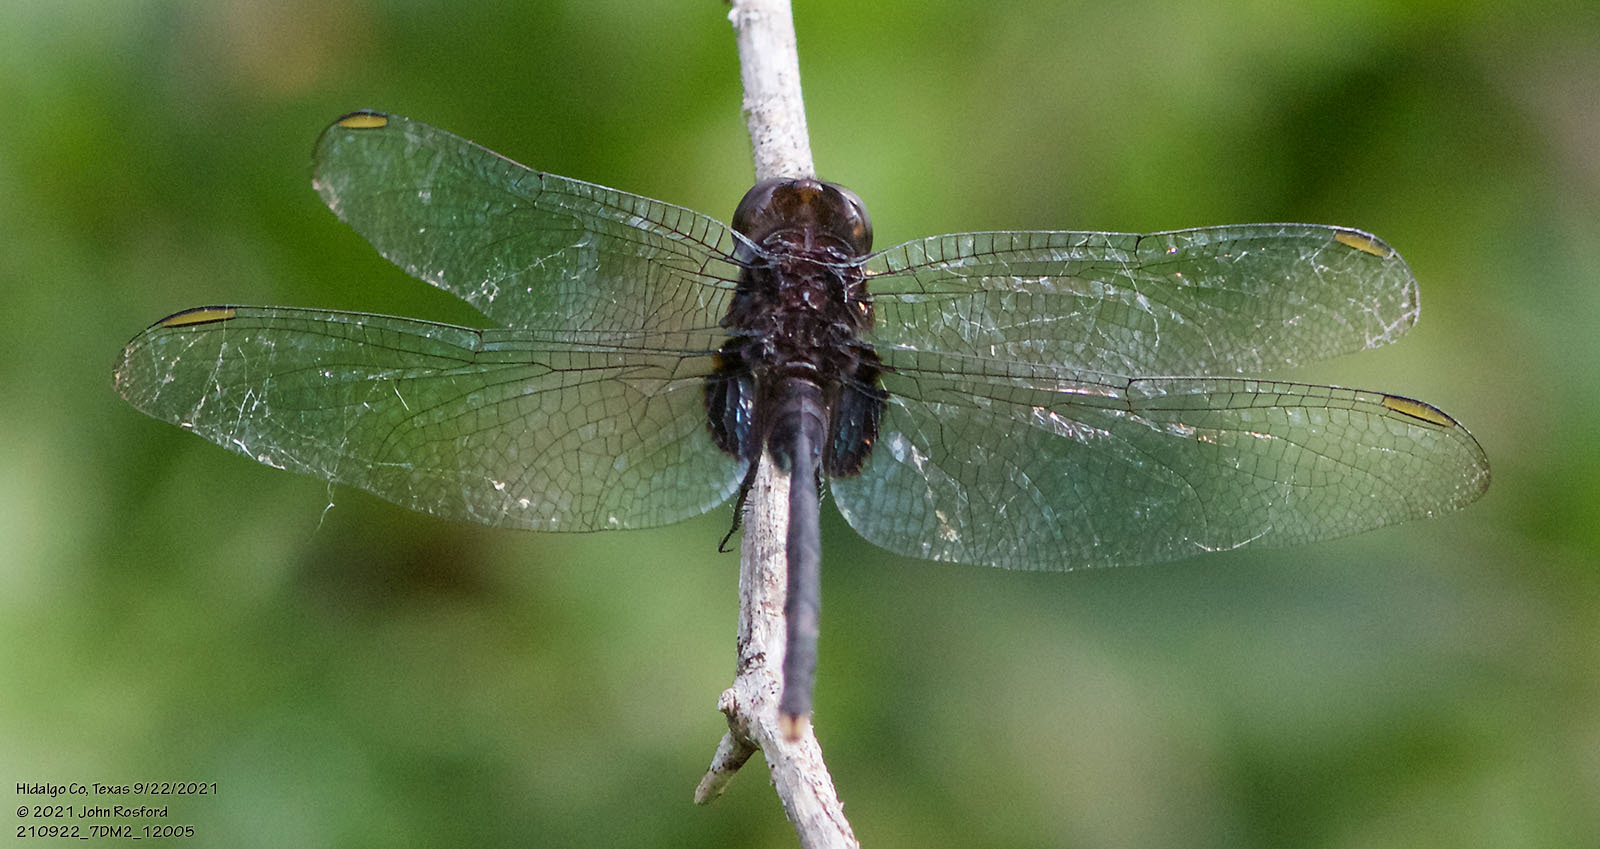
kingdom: Animalia
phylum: Arthropoda
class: Insecta
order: Odonata
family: Libellulidae
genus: Erythemis
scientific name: Erythemis plebeja
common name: Pin-tailed pondhawk
